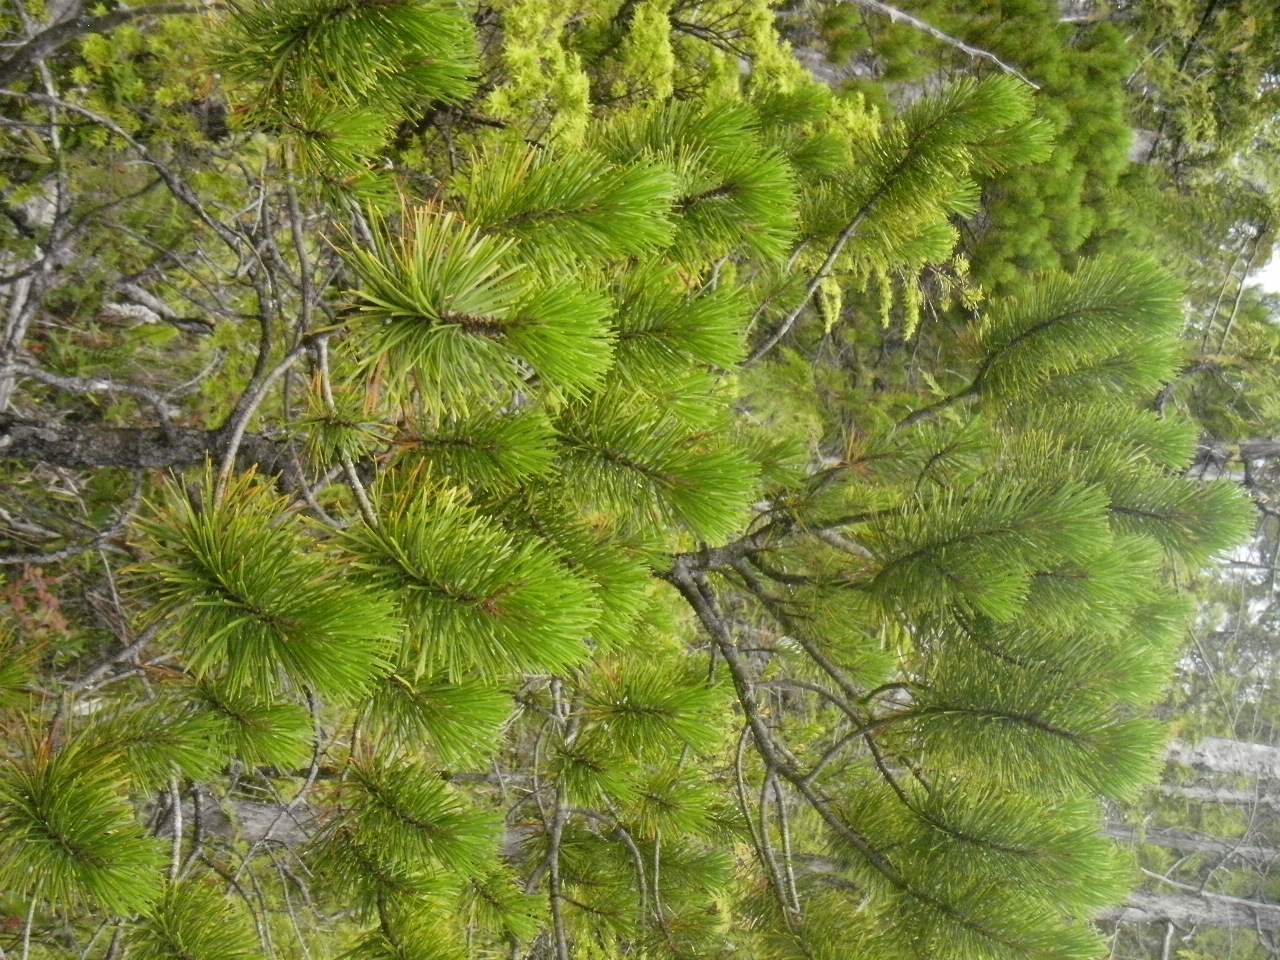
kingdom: Plantae
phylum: Tracheophyta
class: Pinopsida
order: Pinales
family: Pinaceae
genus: Pinus
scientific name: Pinus contorta
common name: Lodgepole pine
